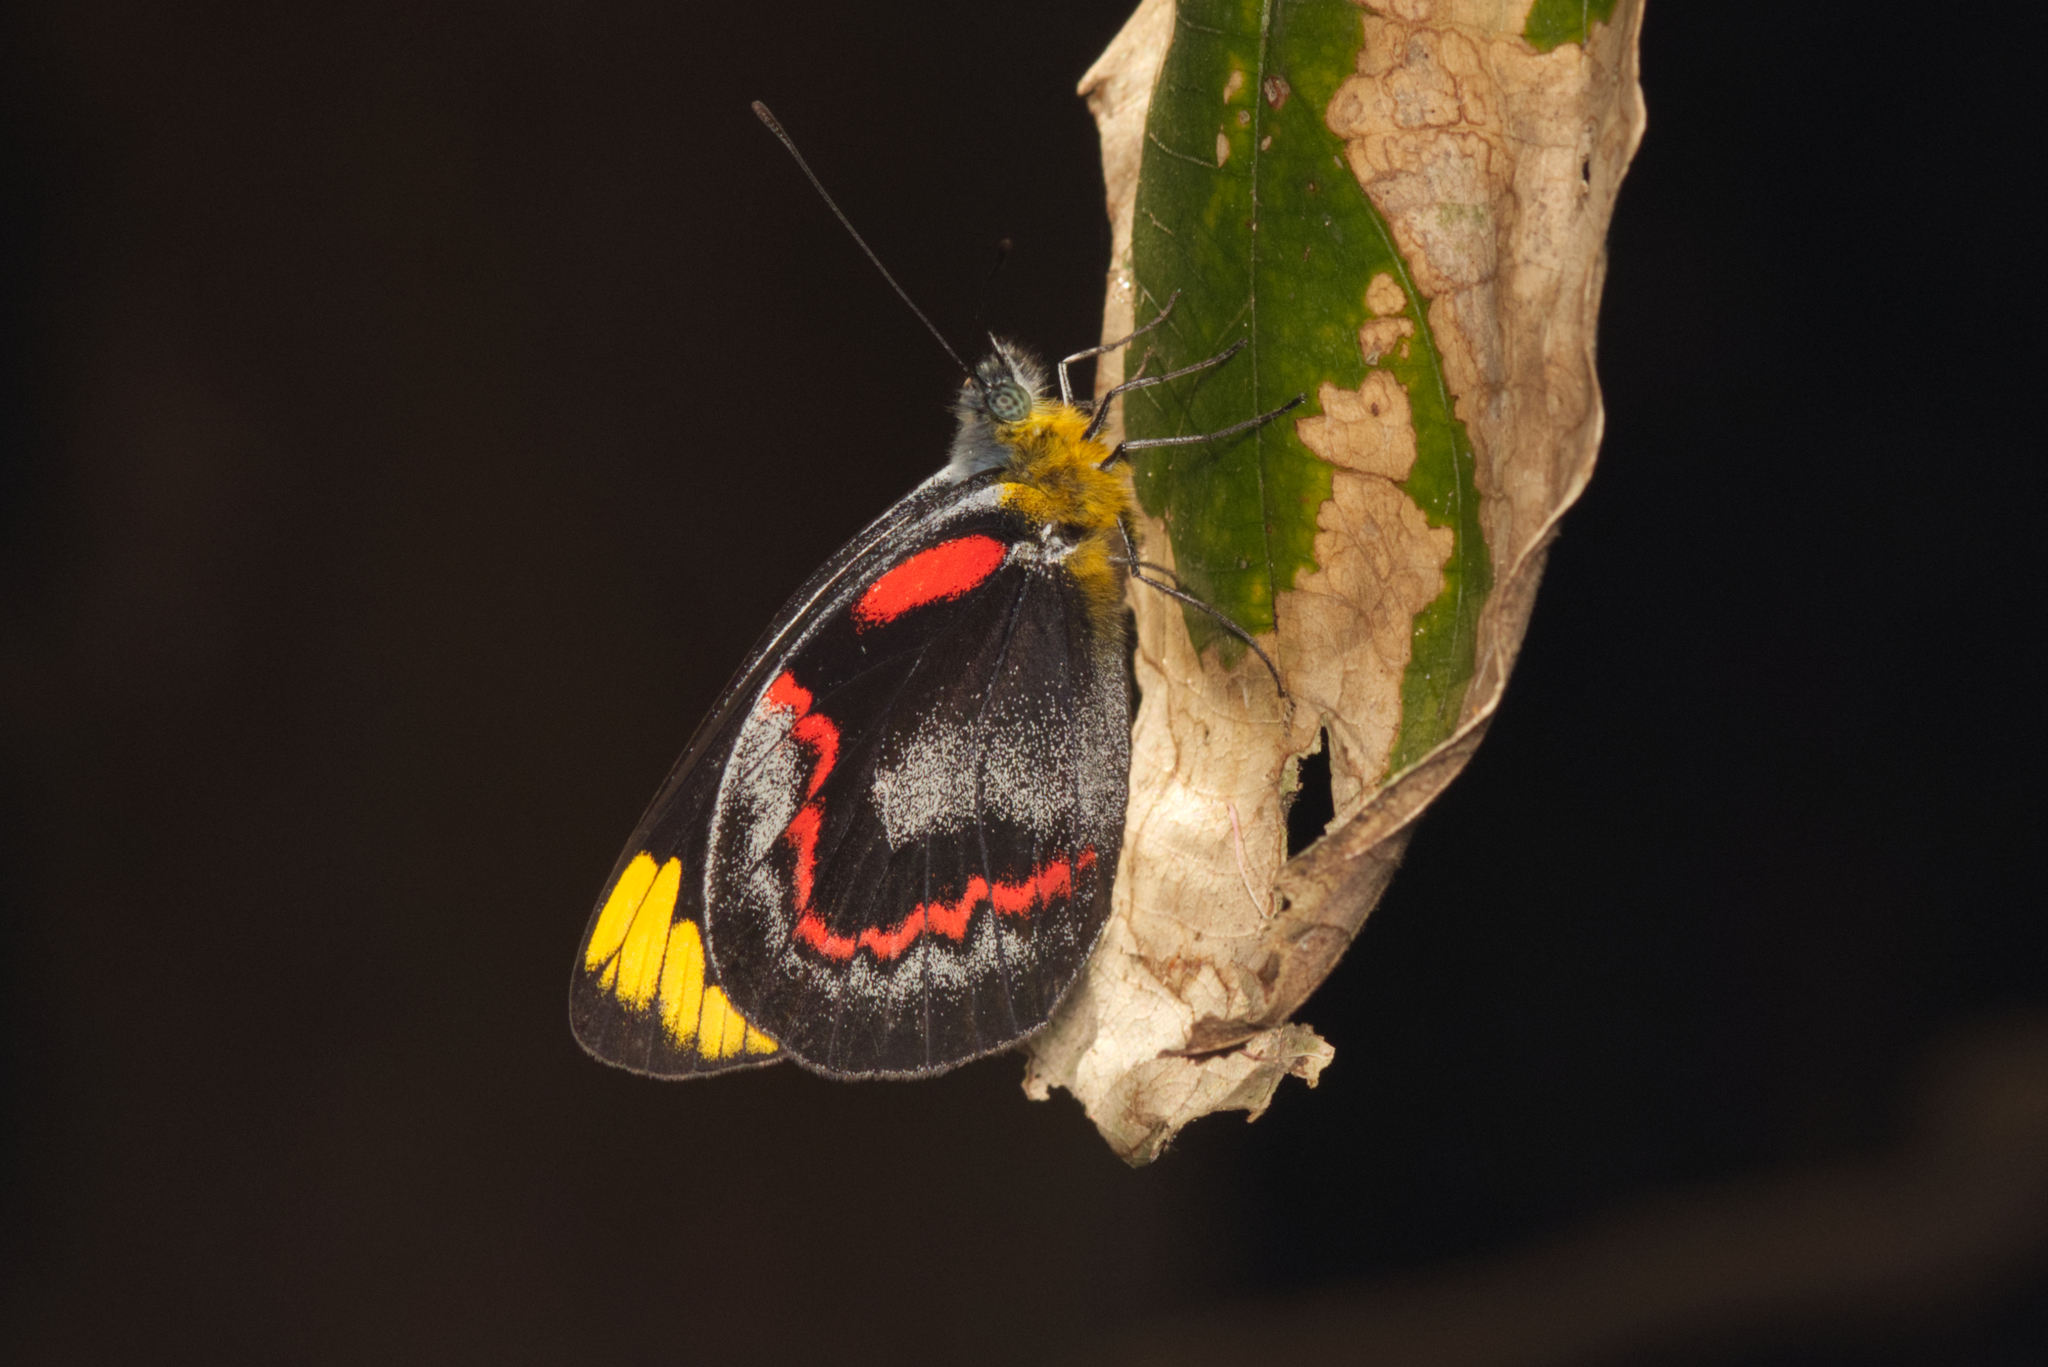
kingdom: Animalia
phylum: Arthropoda
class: Insecta
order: Lepidoptera
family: Pieridae
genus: Delias
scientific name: Delias nigrina
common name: Black jezebel
